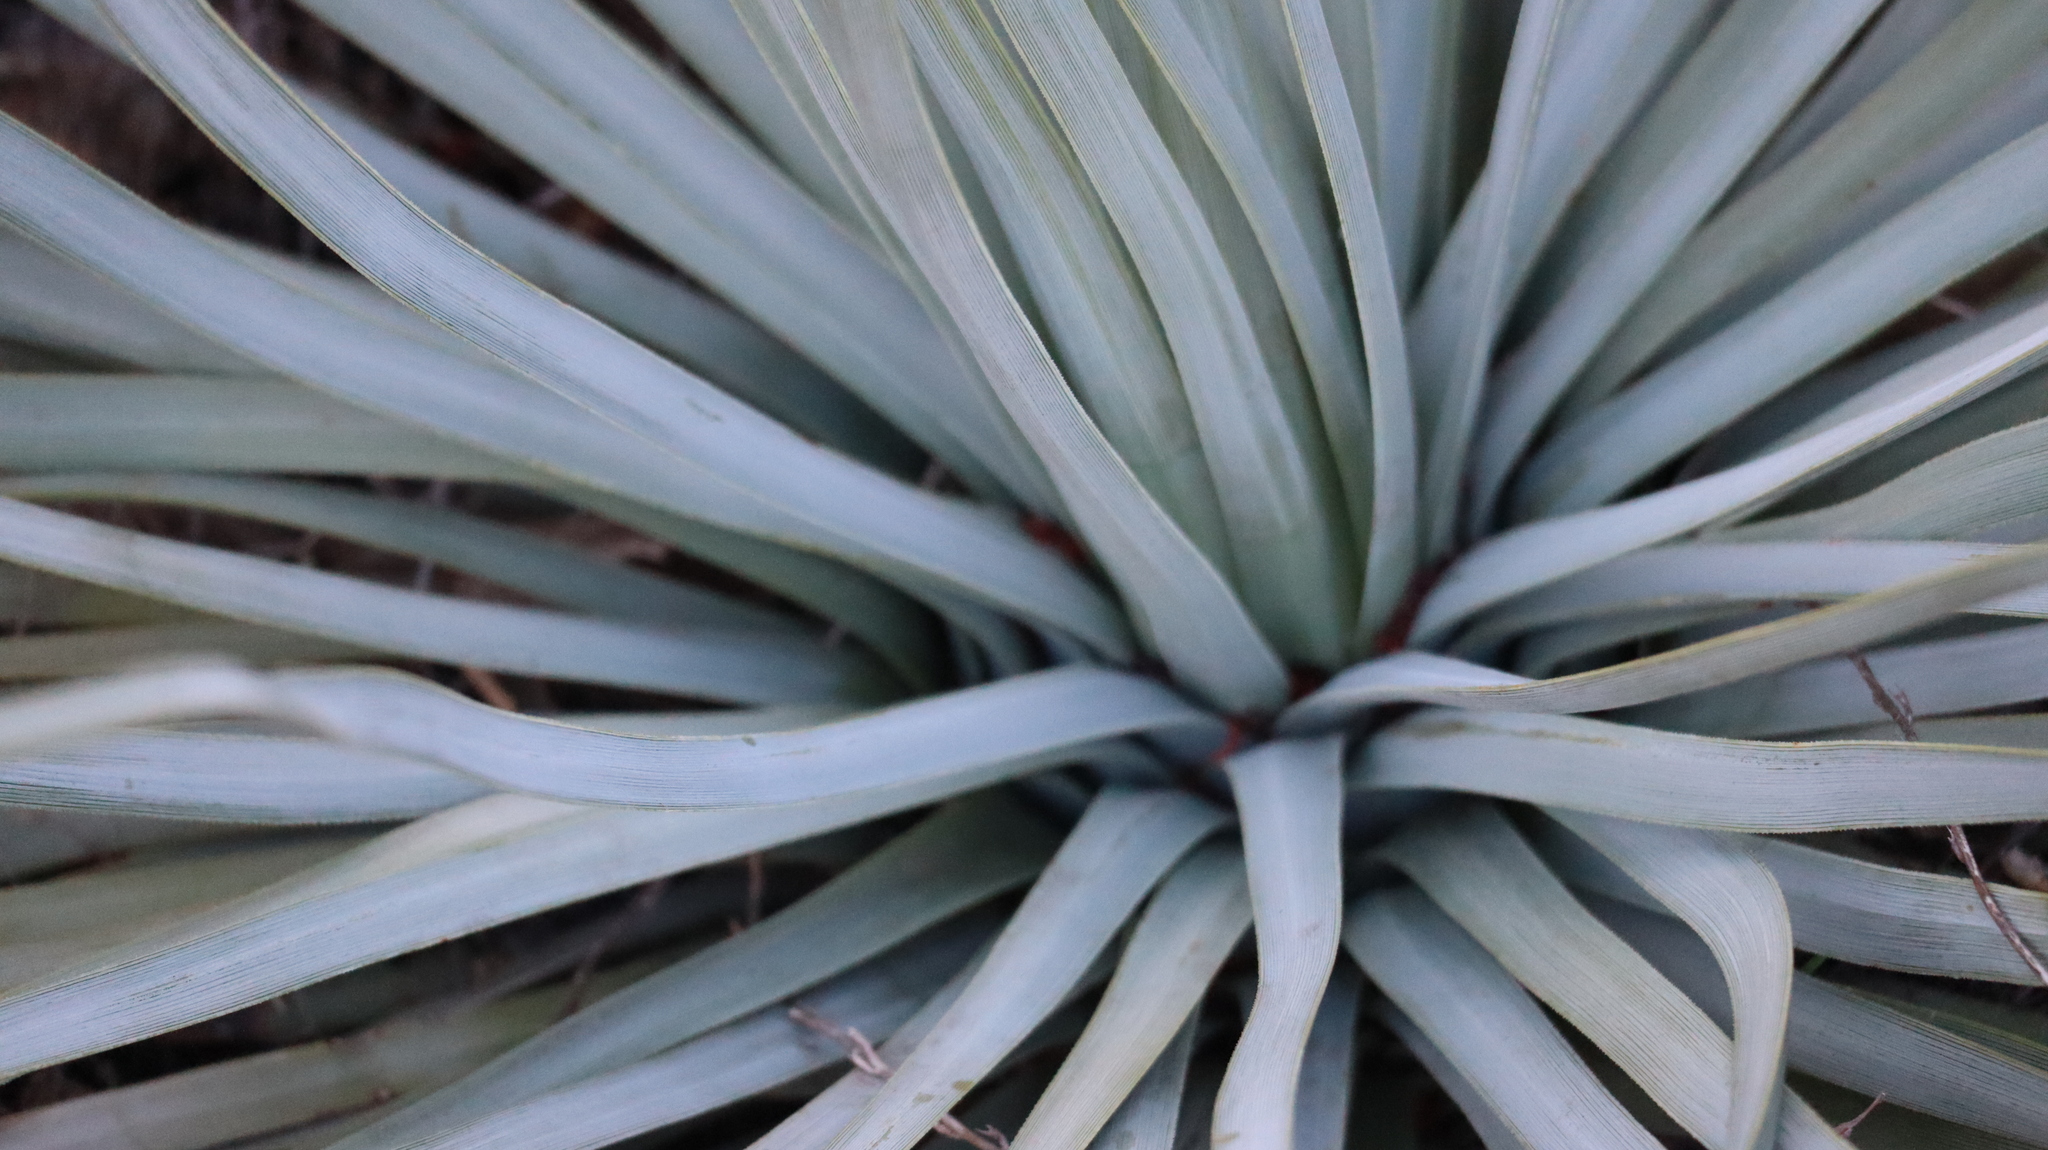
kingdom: Plantae
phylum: Tracheophyta
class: Liliopsida
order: Asparagales
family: Asparagaceae
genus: Hesperoyucca
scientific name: Hesperoyucca whipplei
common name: Our lord's-candle
